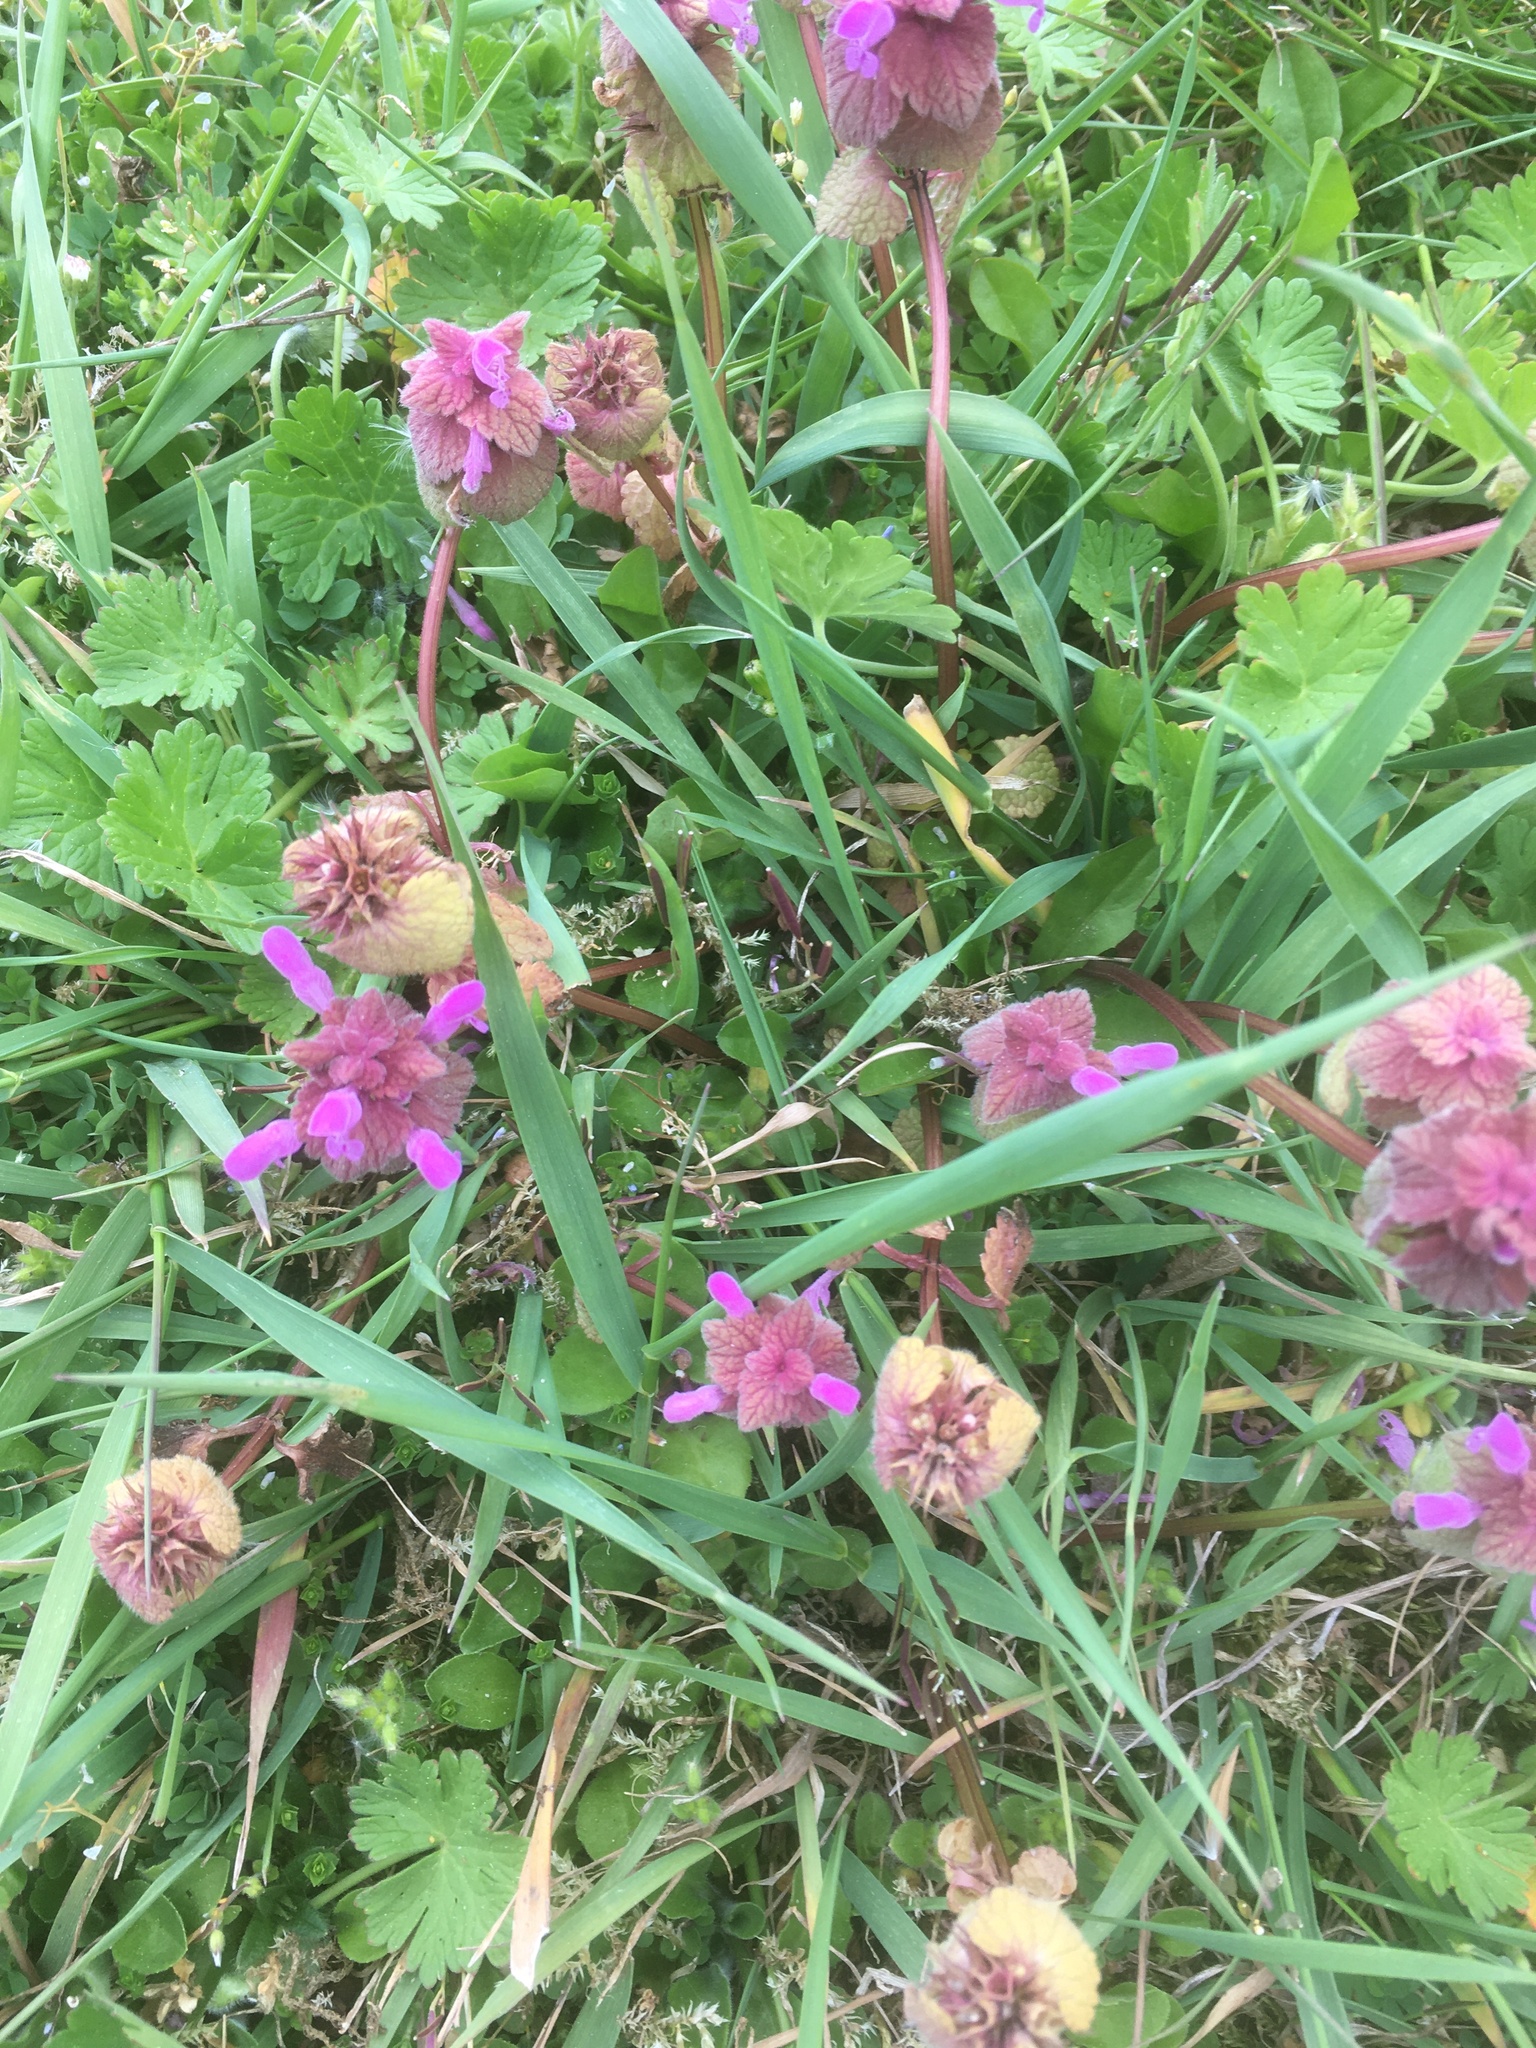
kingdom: Plantae
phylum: Tracheophyta
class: Magnoliopsida
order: Lamiales
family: Lamiaceae
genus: Lamium
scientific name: Lamium purpureum
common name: Red dead-nettle
